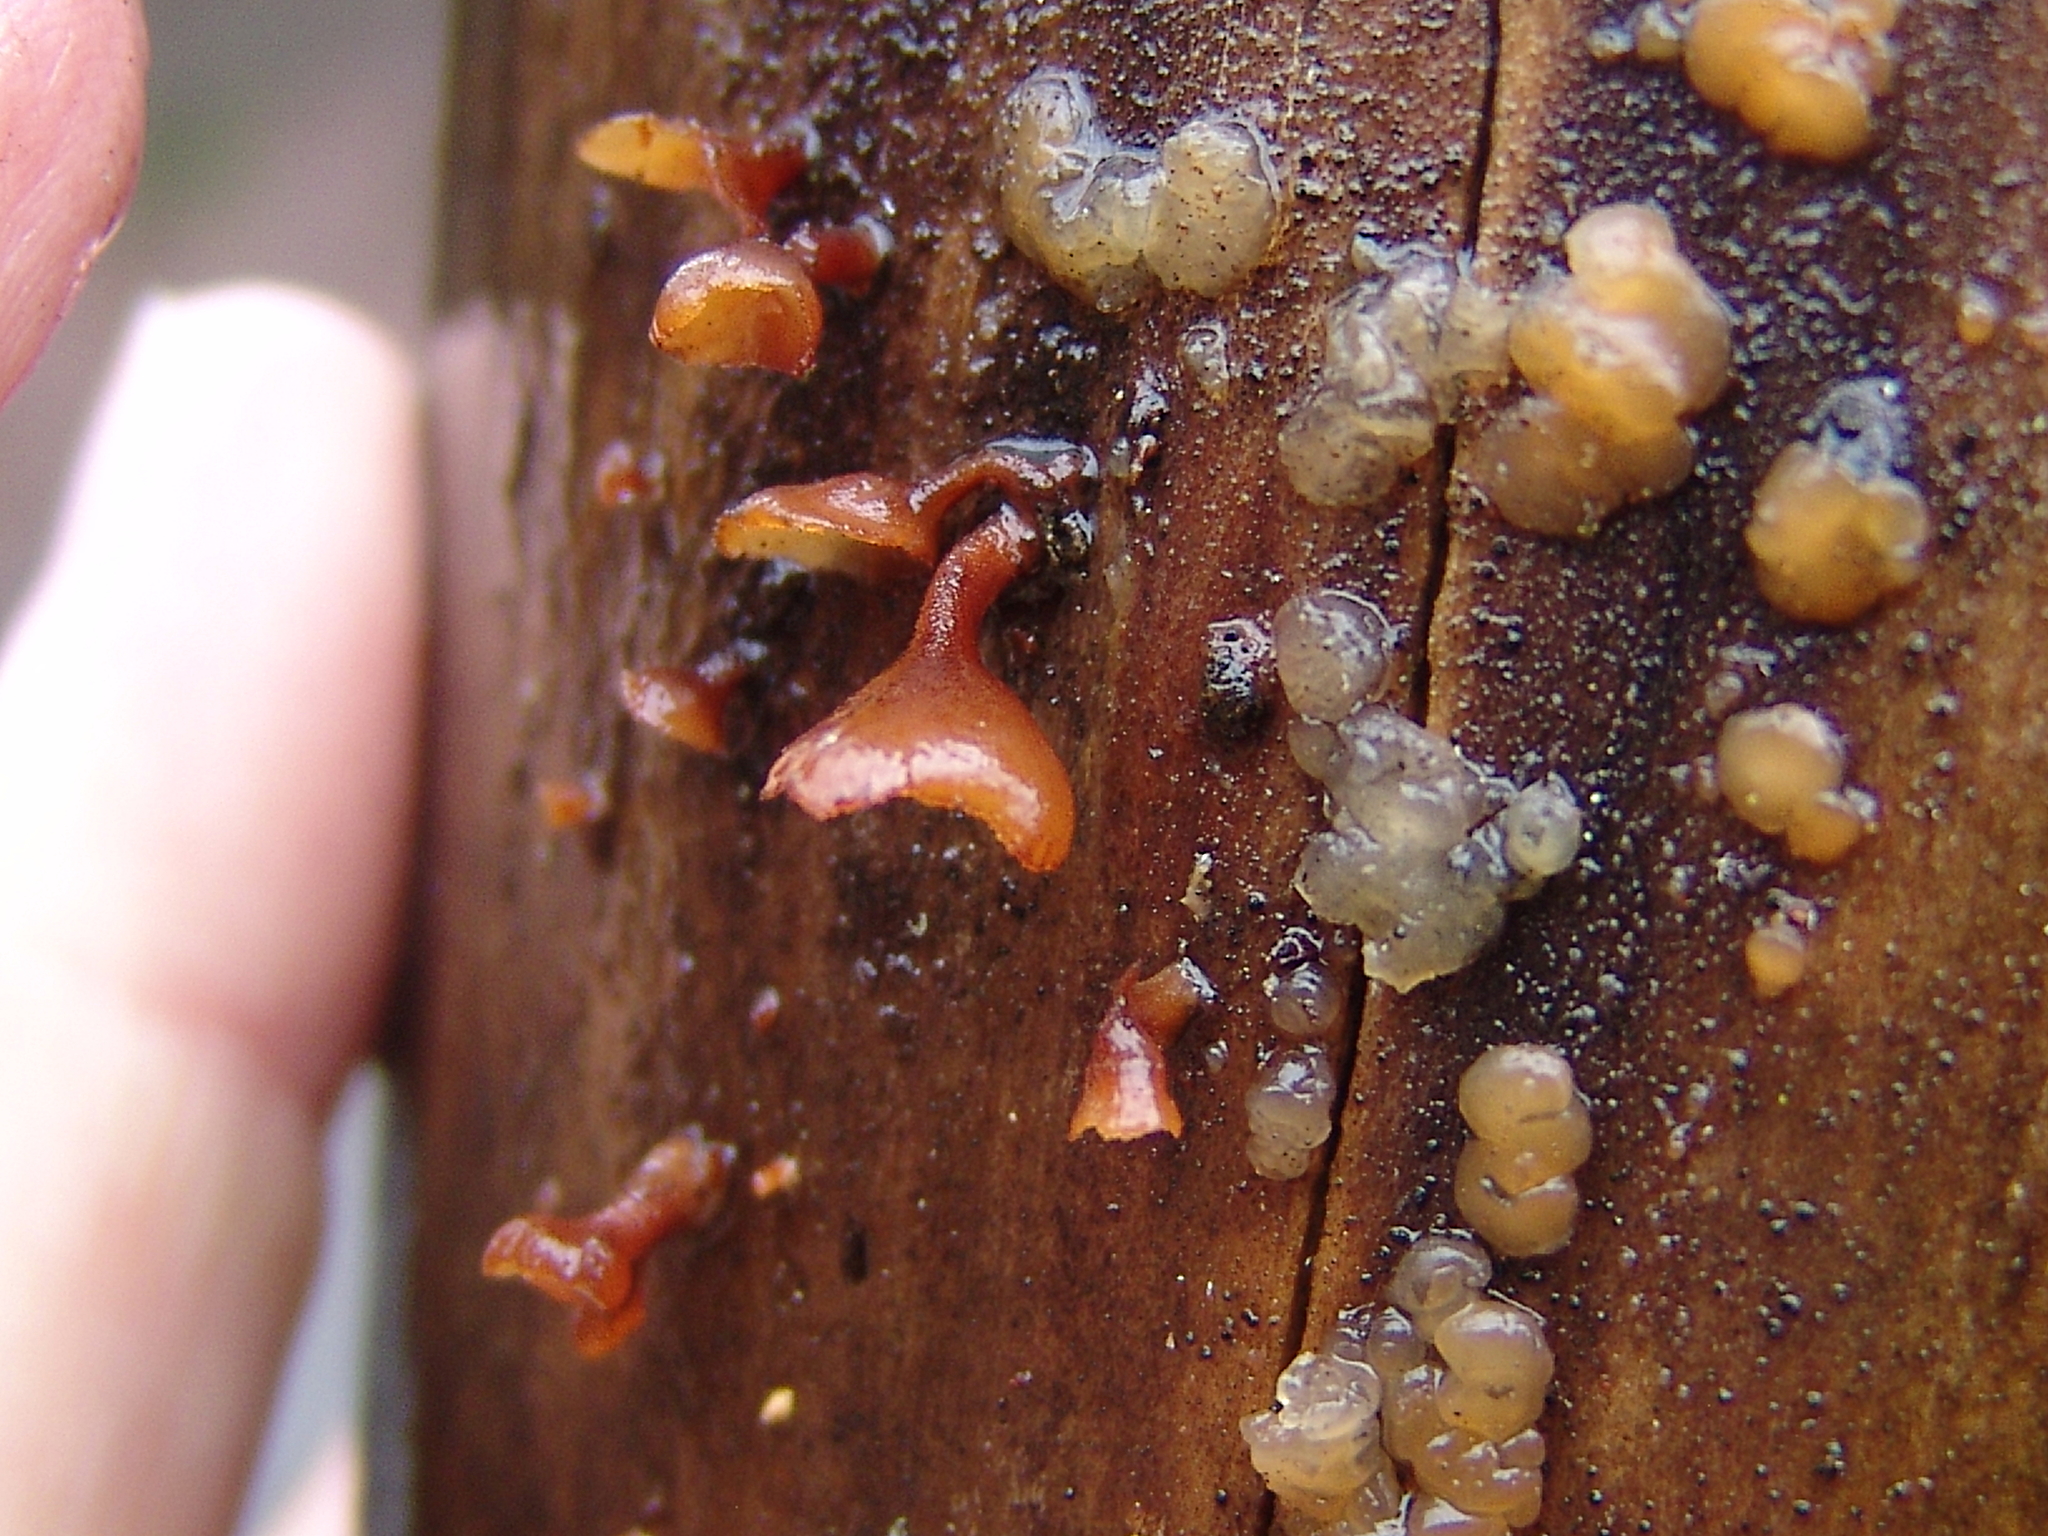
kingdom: Fungi
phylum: Basidiomycota
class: Dacrymycetes
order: Dacrymycetales
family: Dacrymycetaceae
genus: Dacryopinax
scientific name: Dacryopinax elegans
